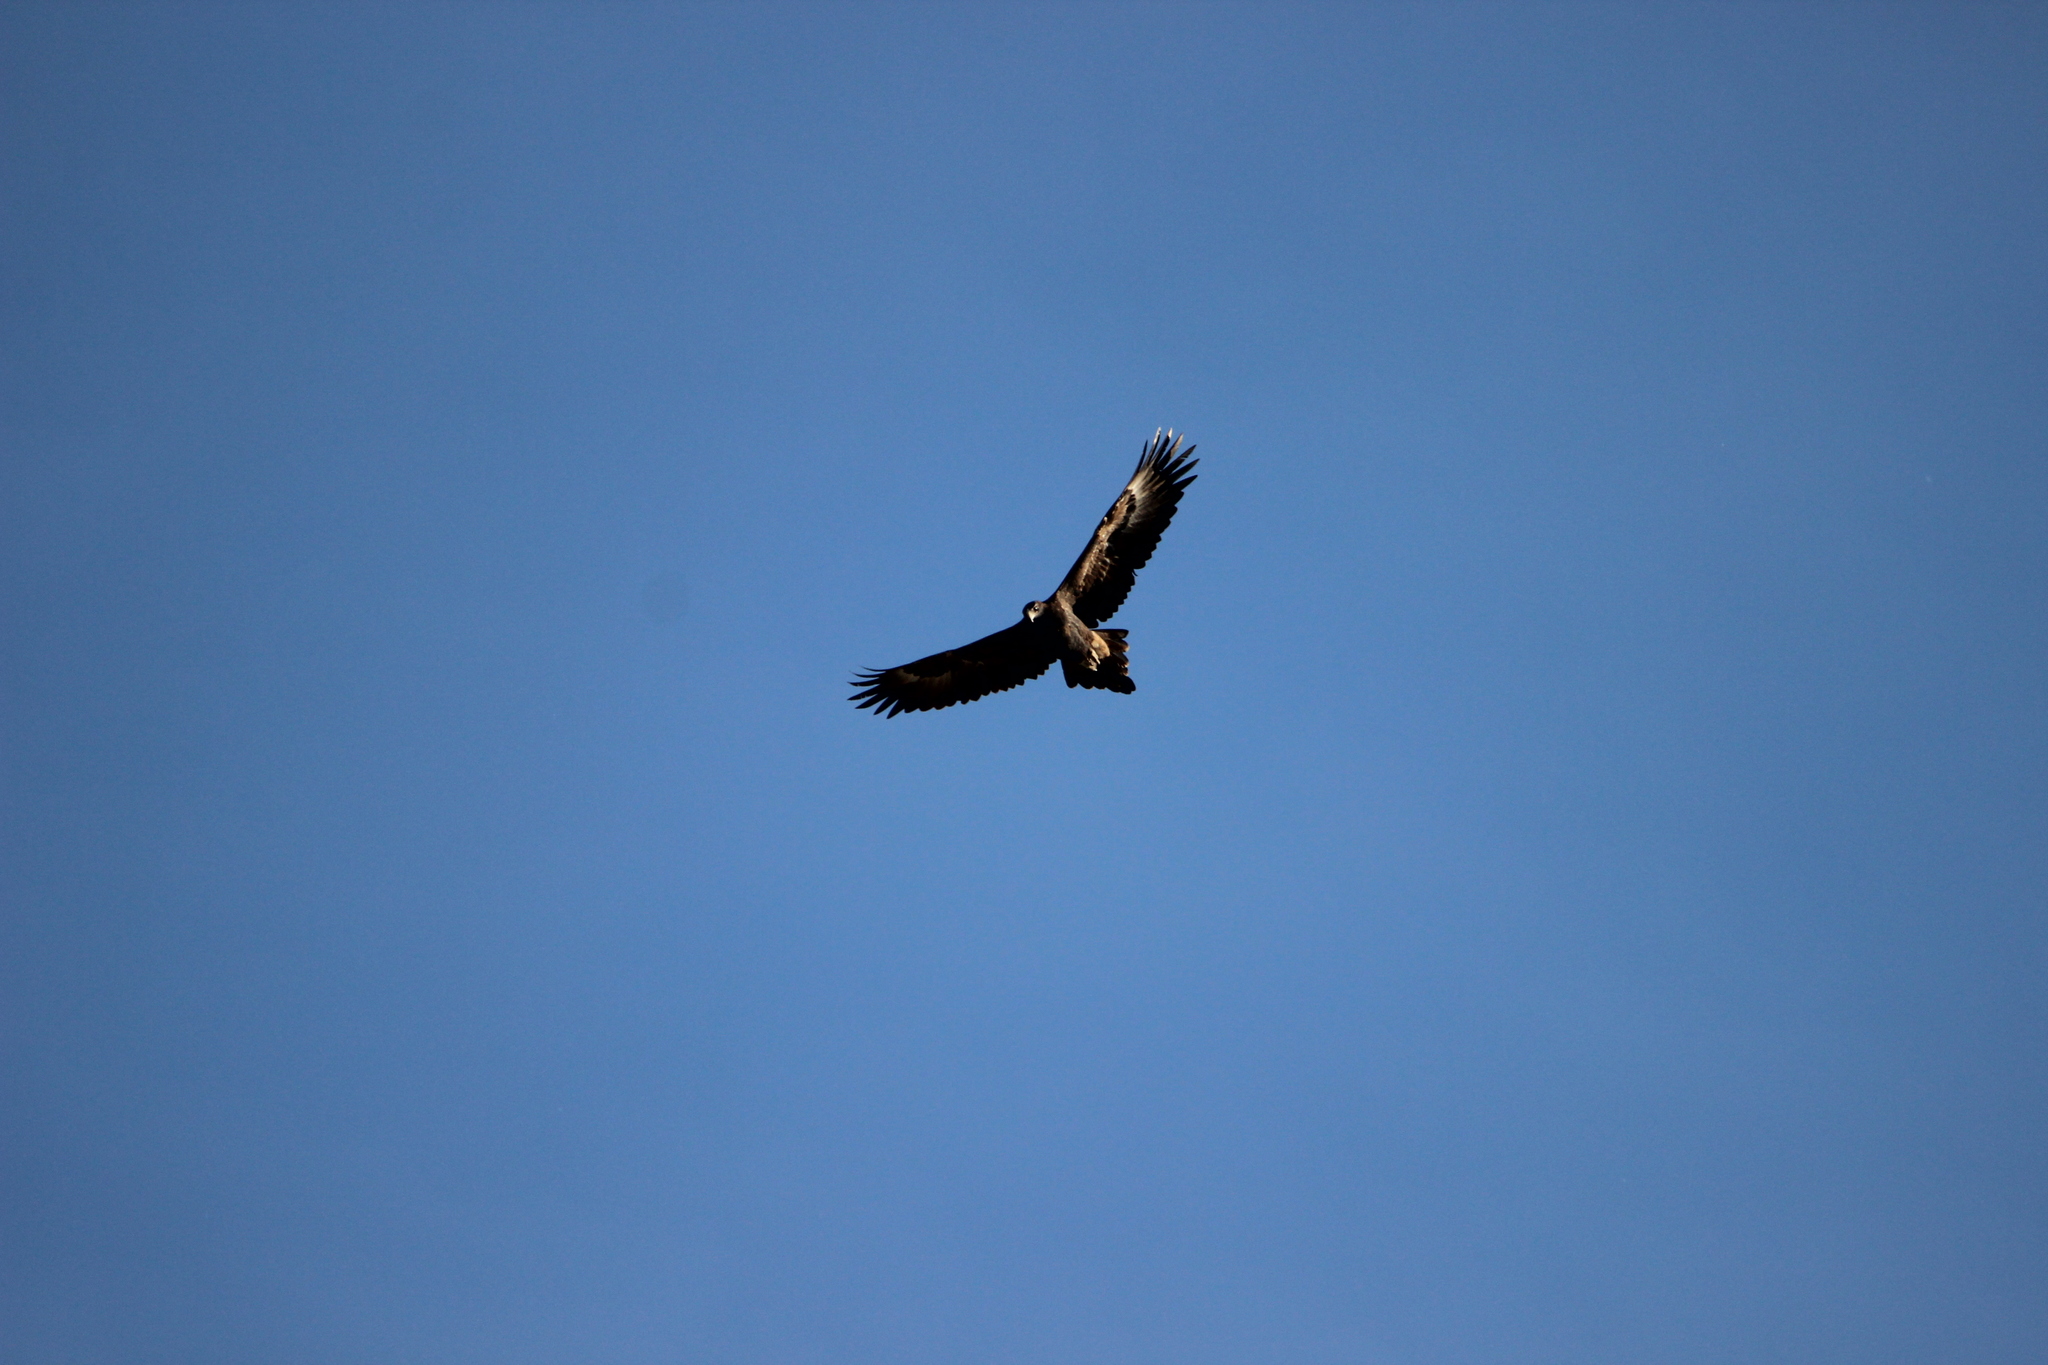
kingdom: Animalia
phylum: Chordata
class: Aves
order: Accipitriformes
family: Accipitridae
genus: Aquila
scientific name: Aquila audax
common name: Wedge-tailed eagle
